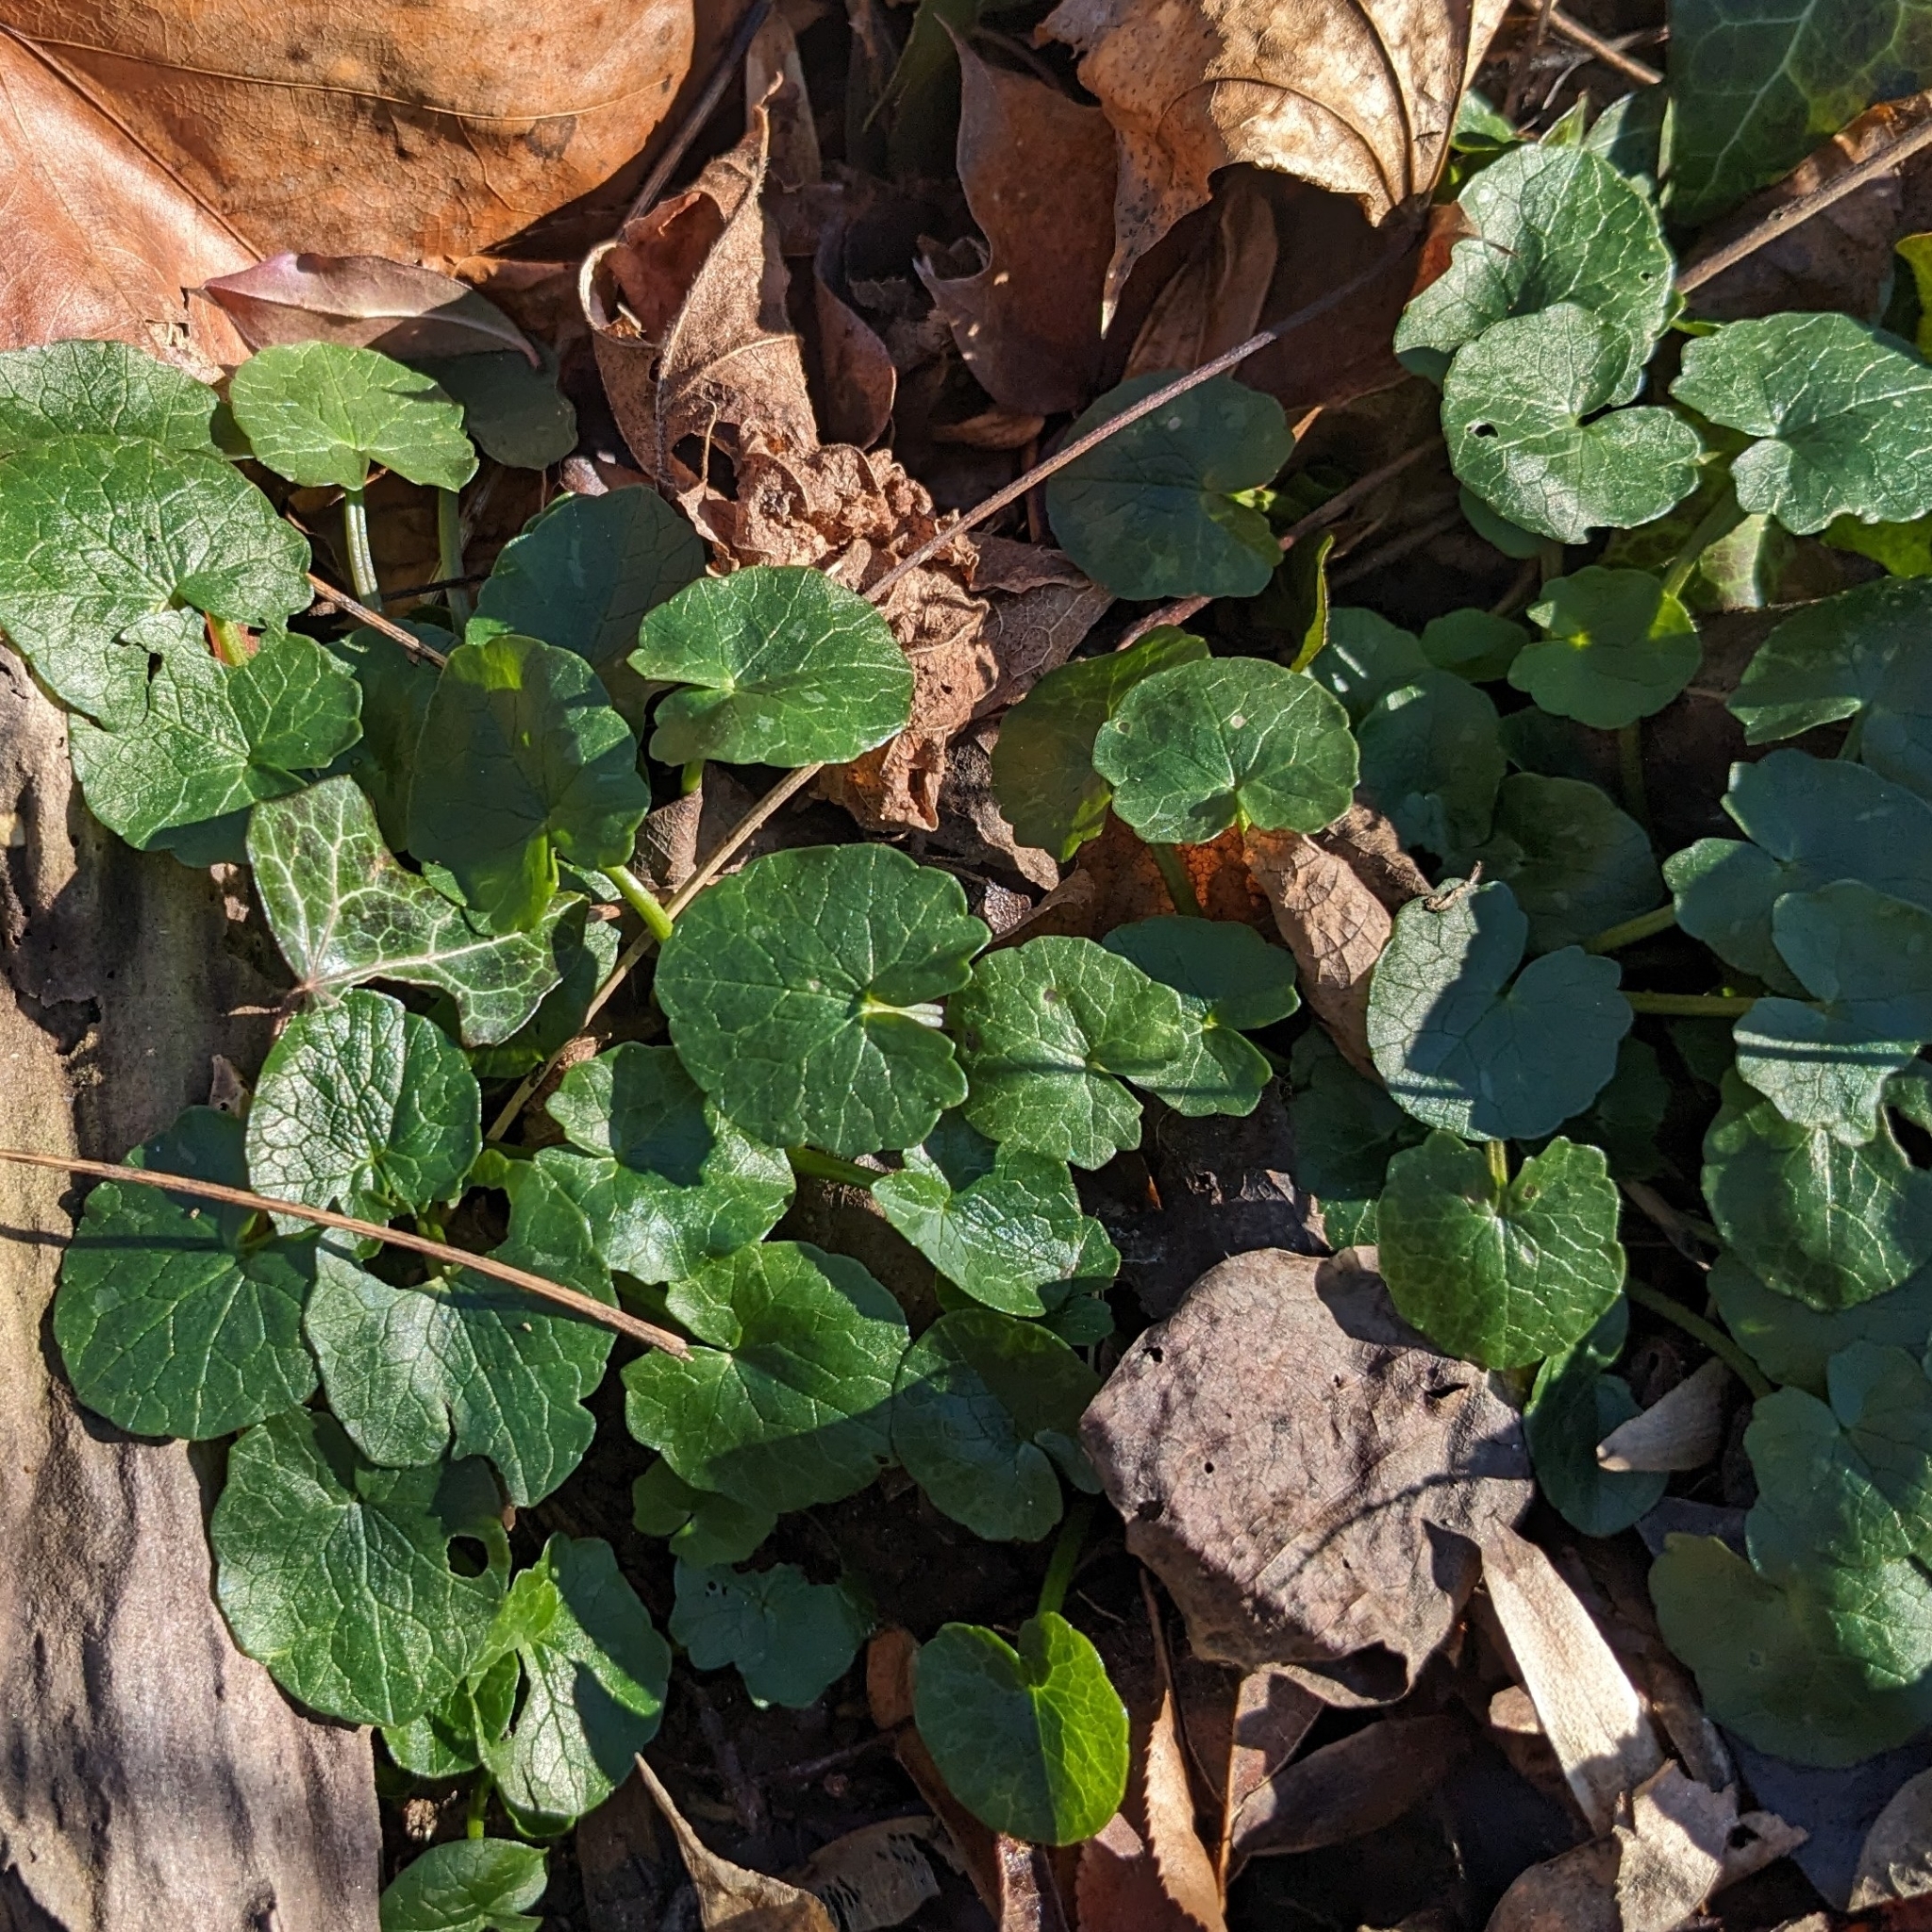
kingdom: Plantae
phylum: Tracheophyta
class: Magnoliopsida
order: Ranunculales
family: Ranunculaceae
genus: Ficaria
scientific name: Ficaria verna
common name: Lesser celandine
